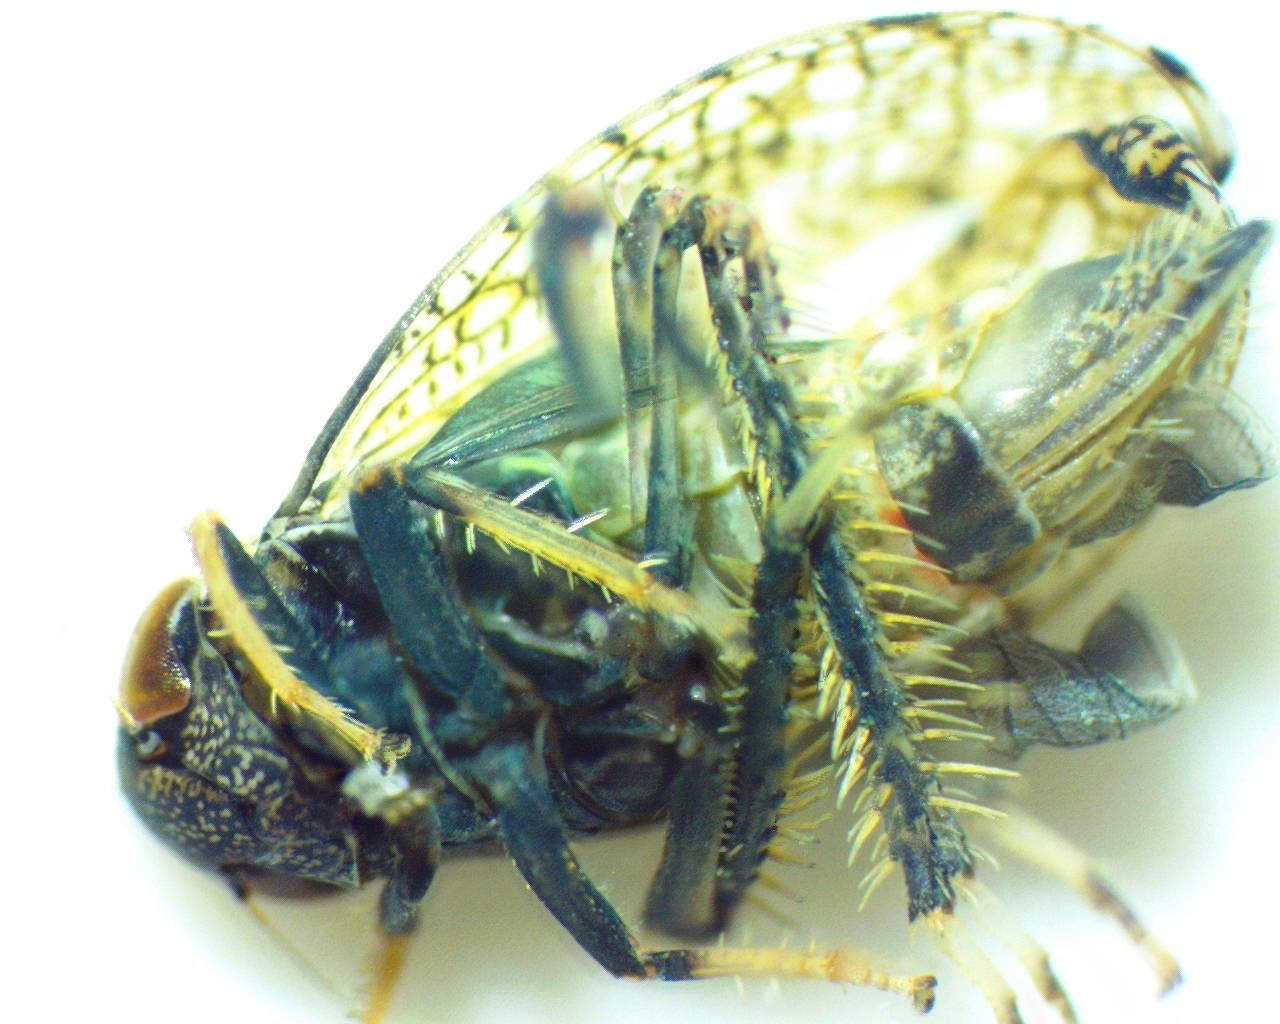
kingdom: Animalia
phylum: Arthropoda
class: Insecta
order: Hemiptera
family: Cicadellidae
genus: Orientus
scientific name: Orientus ishidae
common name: Japanese leafhopper
